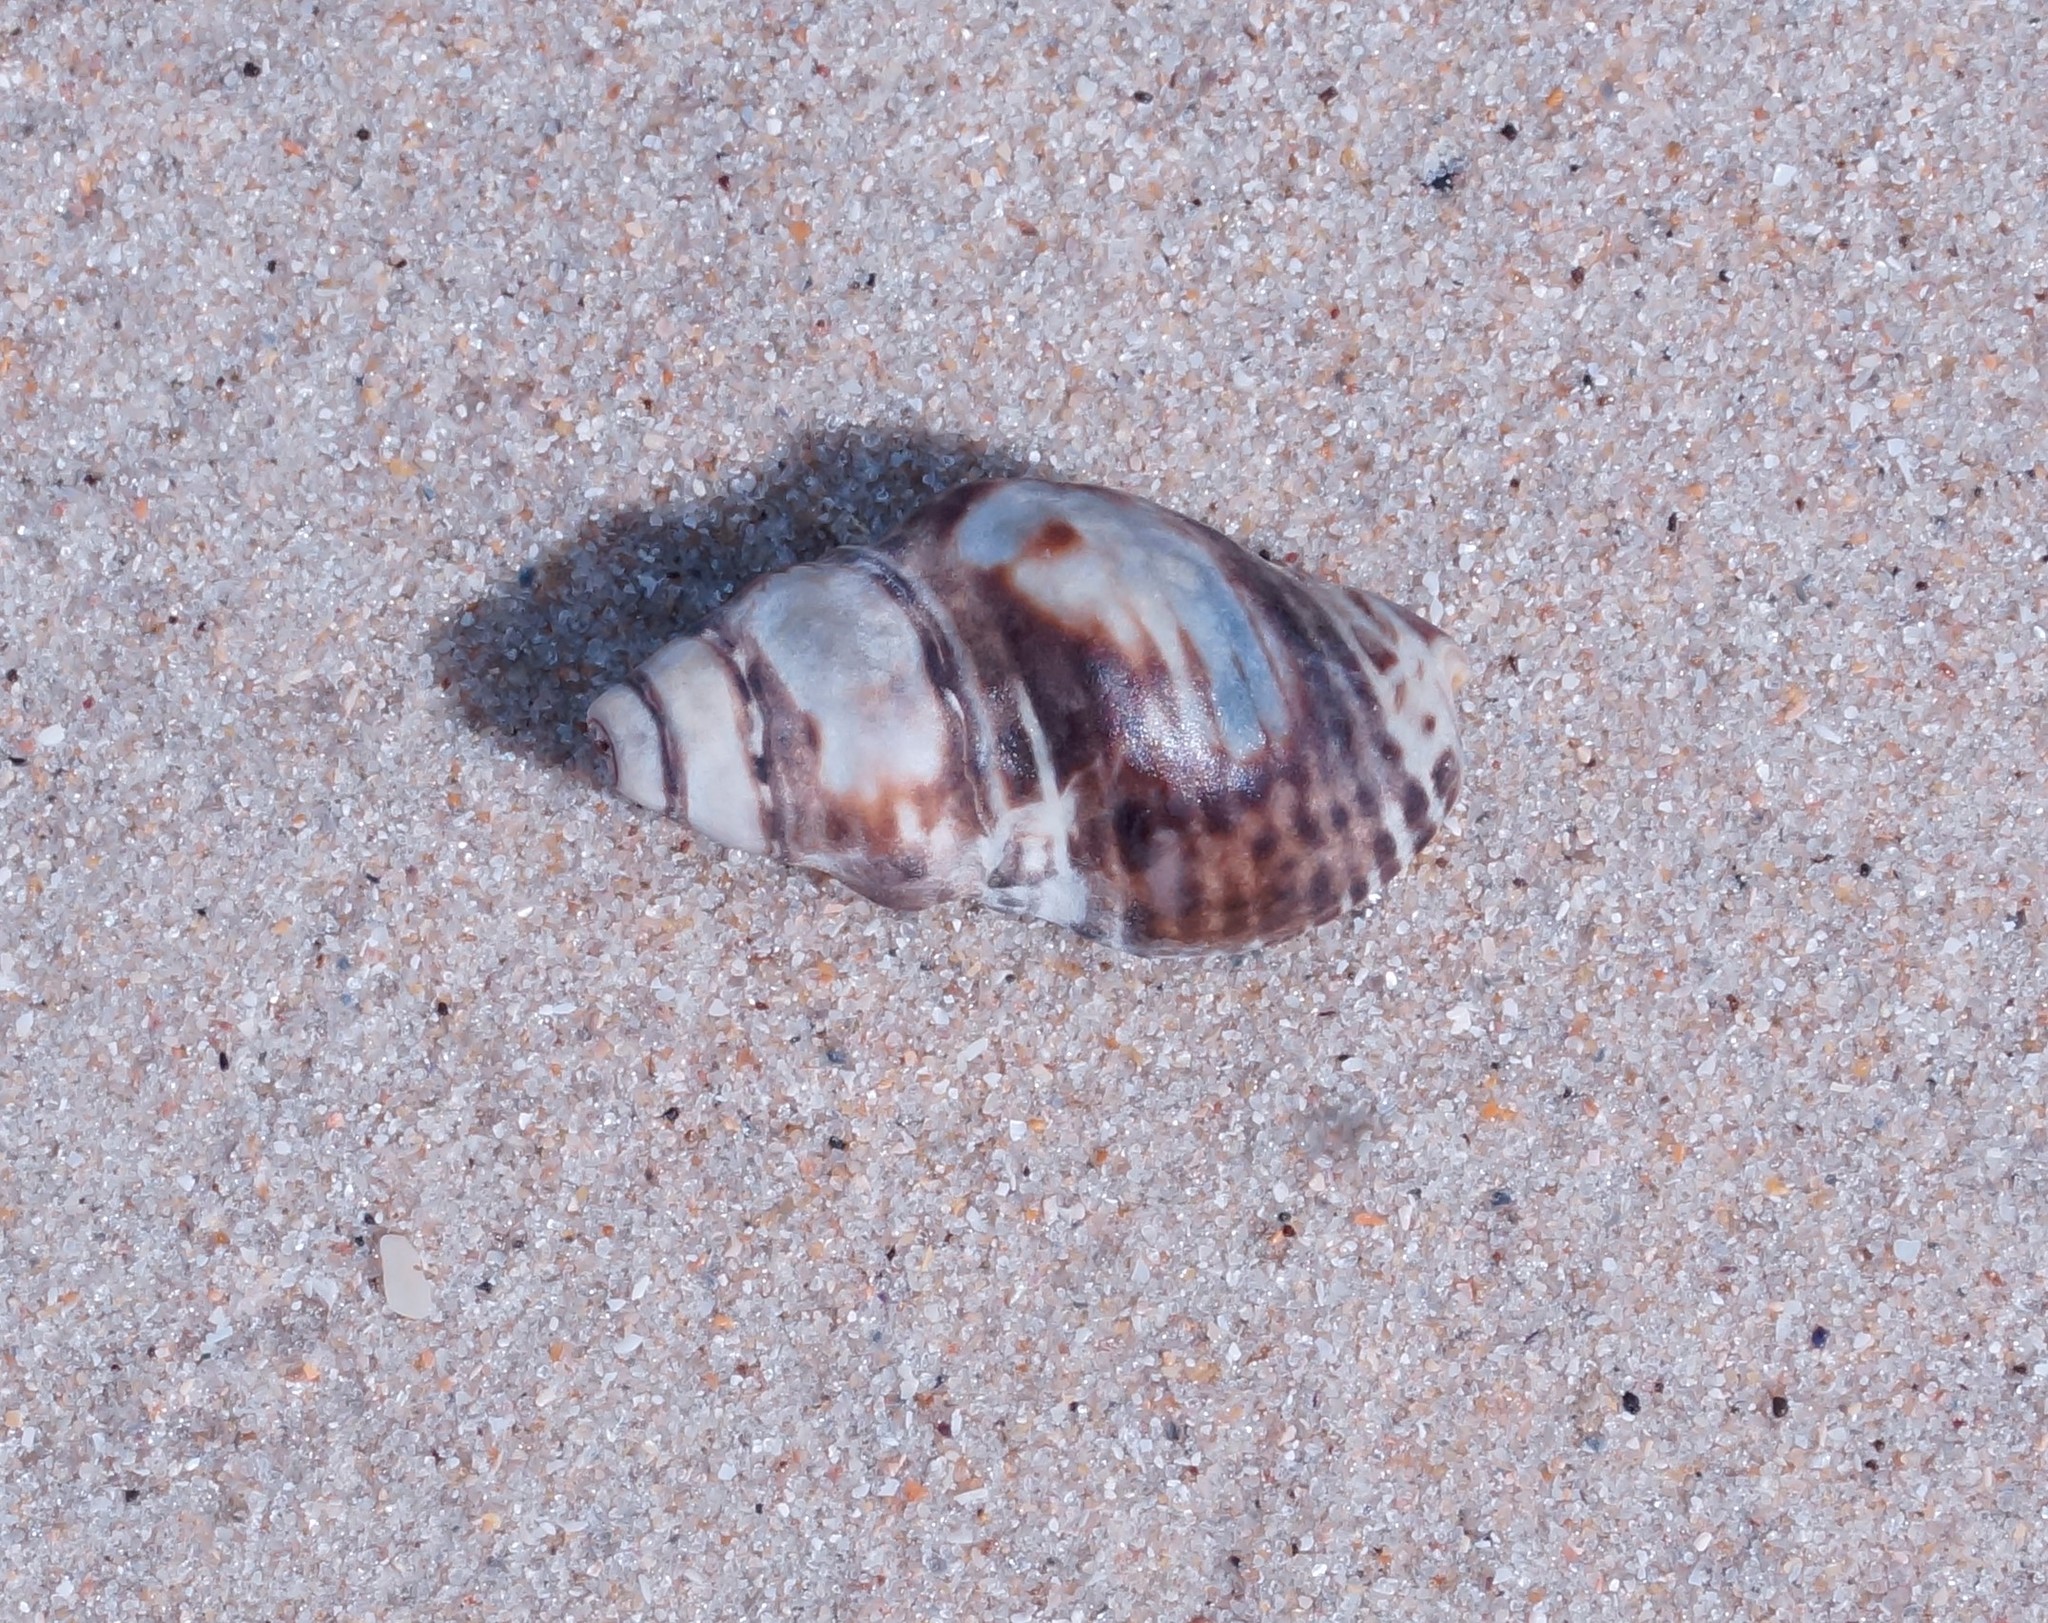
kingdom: Animalia
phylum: Mollusca
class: Gastropoda
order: Neogastropoda
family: Cominellidae
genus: Cominella
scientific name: Cominella lineolata
